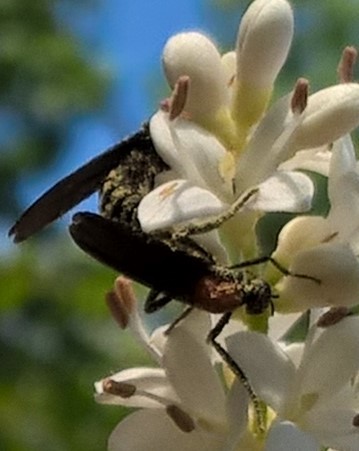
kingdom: Animalia
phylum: Arthropoda
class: Insecta
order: Diptera
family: Bibionidae
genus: Plecia
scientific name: Plecia nearctica
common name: March fly
